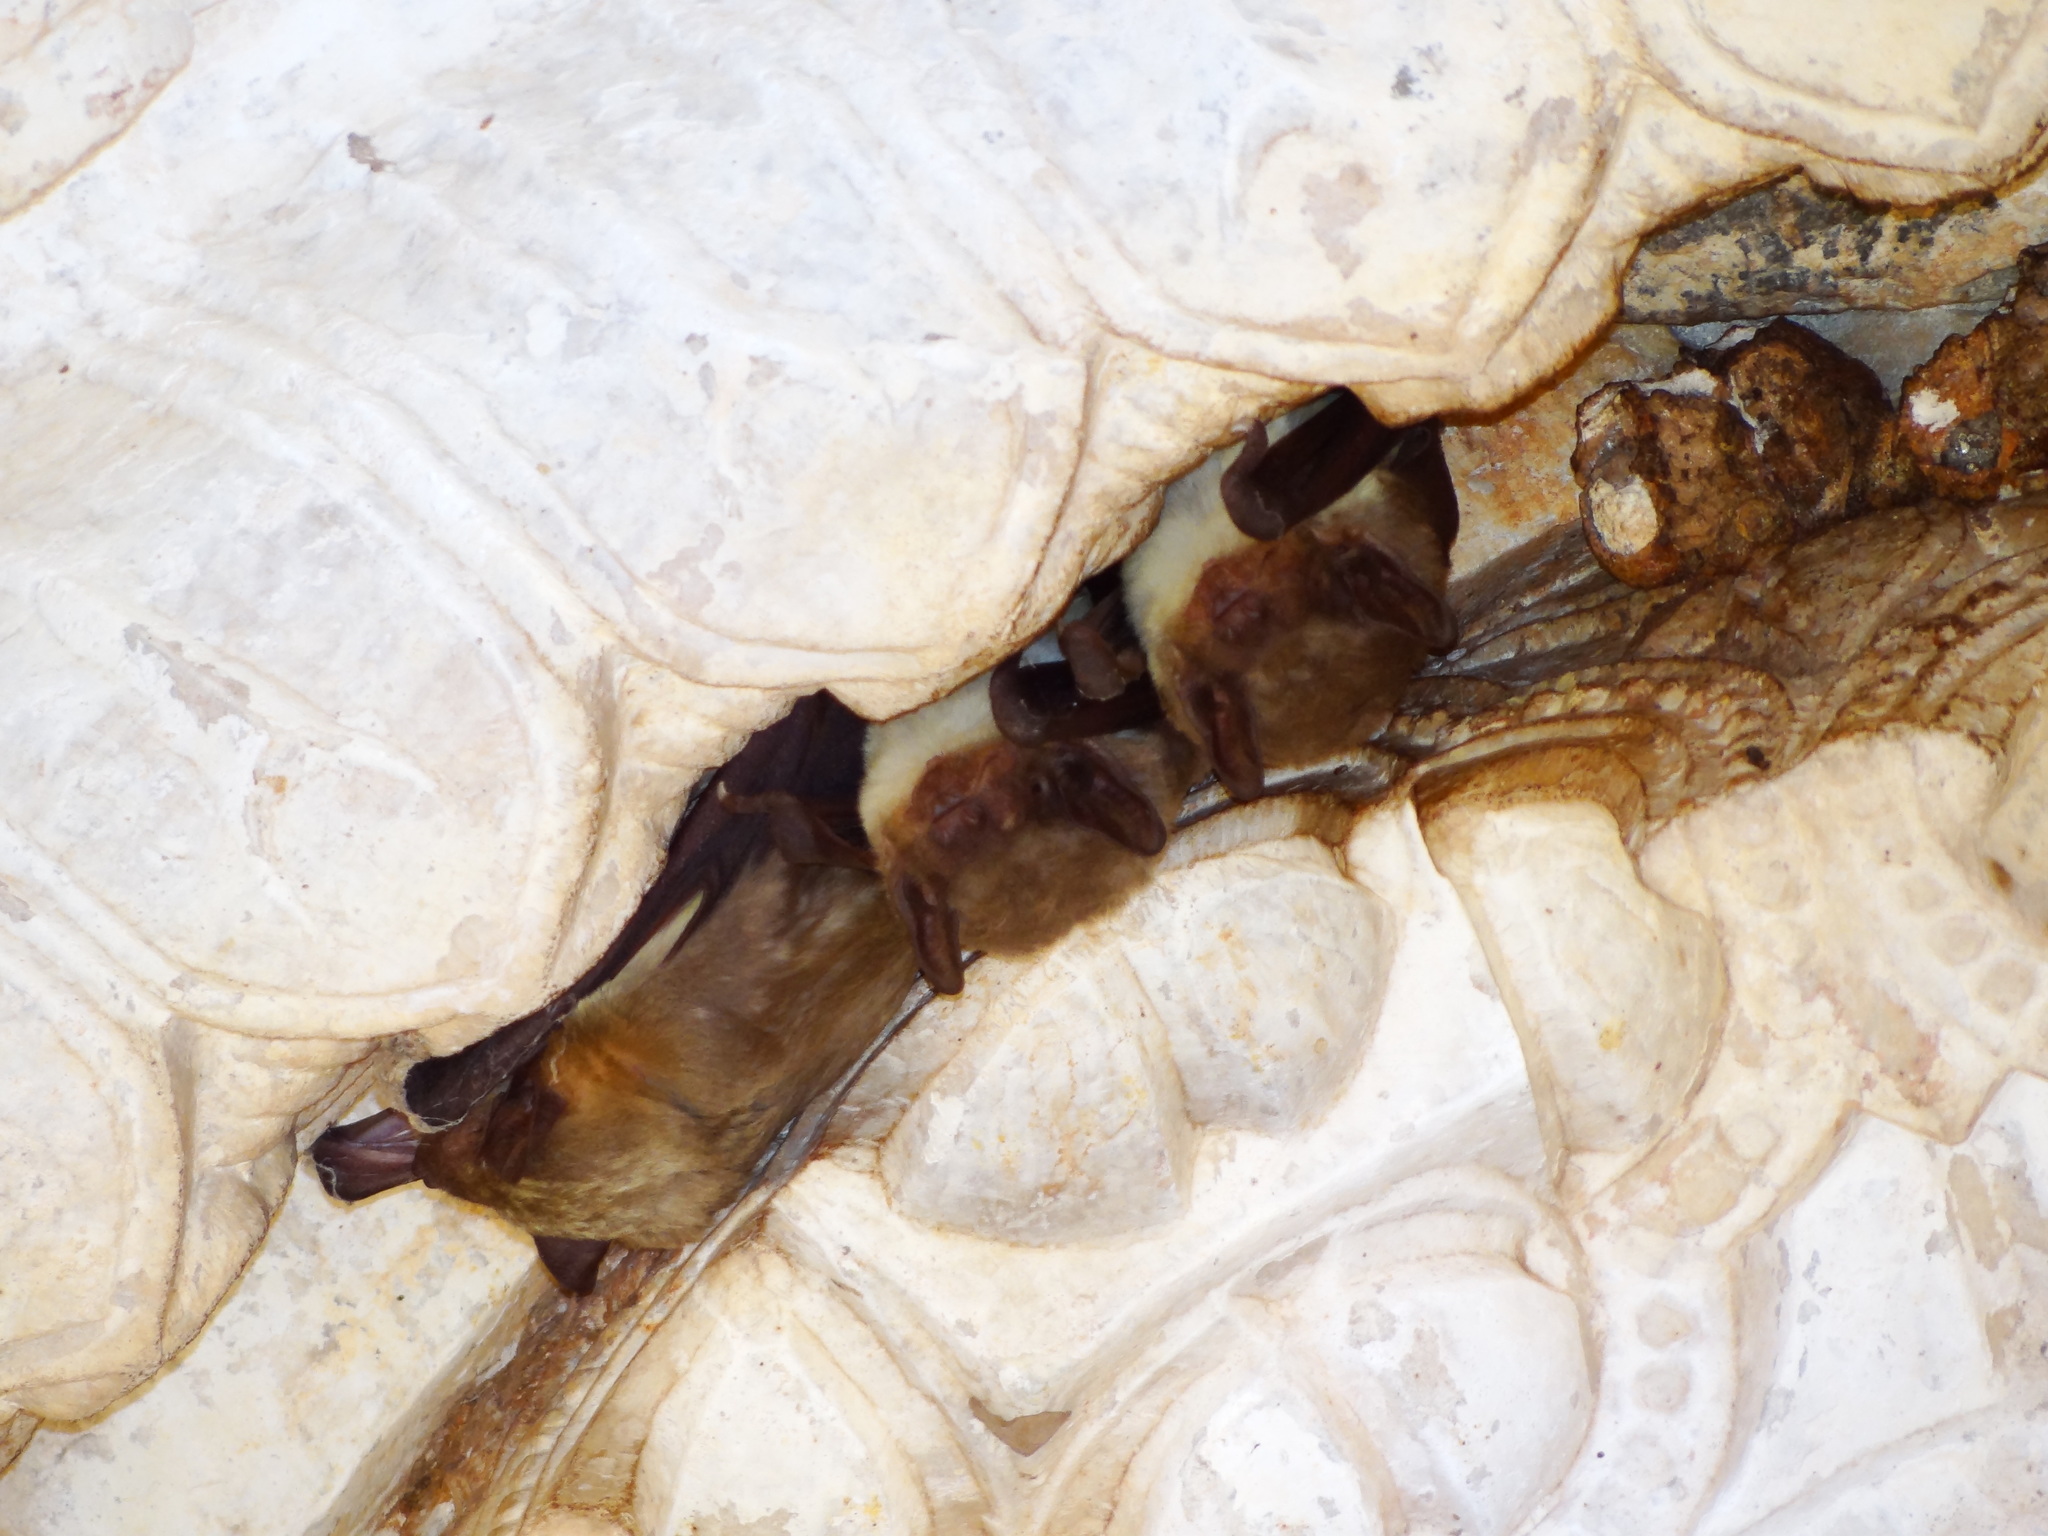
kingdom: Animalia
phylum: Chordata
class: Mammalia
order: Chiroptera
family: Vespertilionidae
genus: Scotophilus
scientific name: Scotophilus kuhlii
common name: Lesser asiatic yellow house bat
